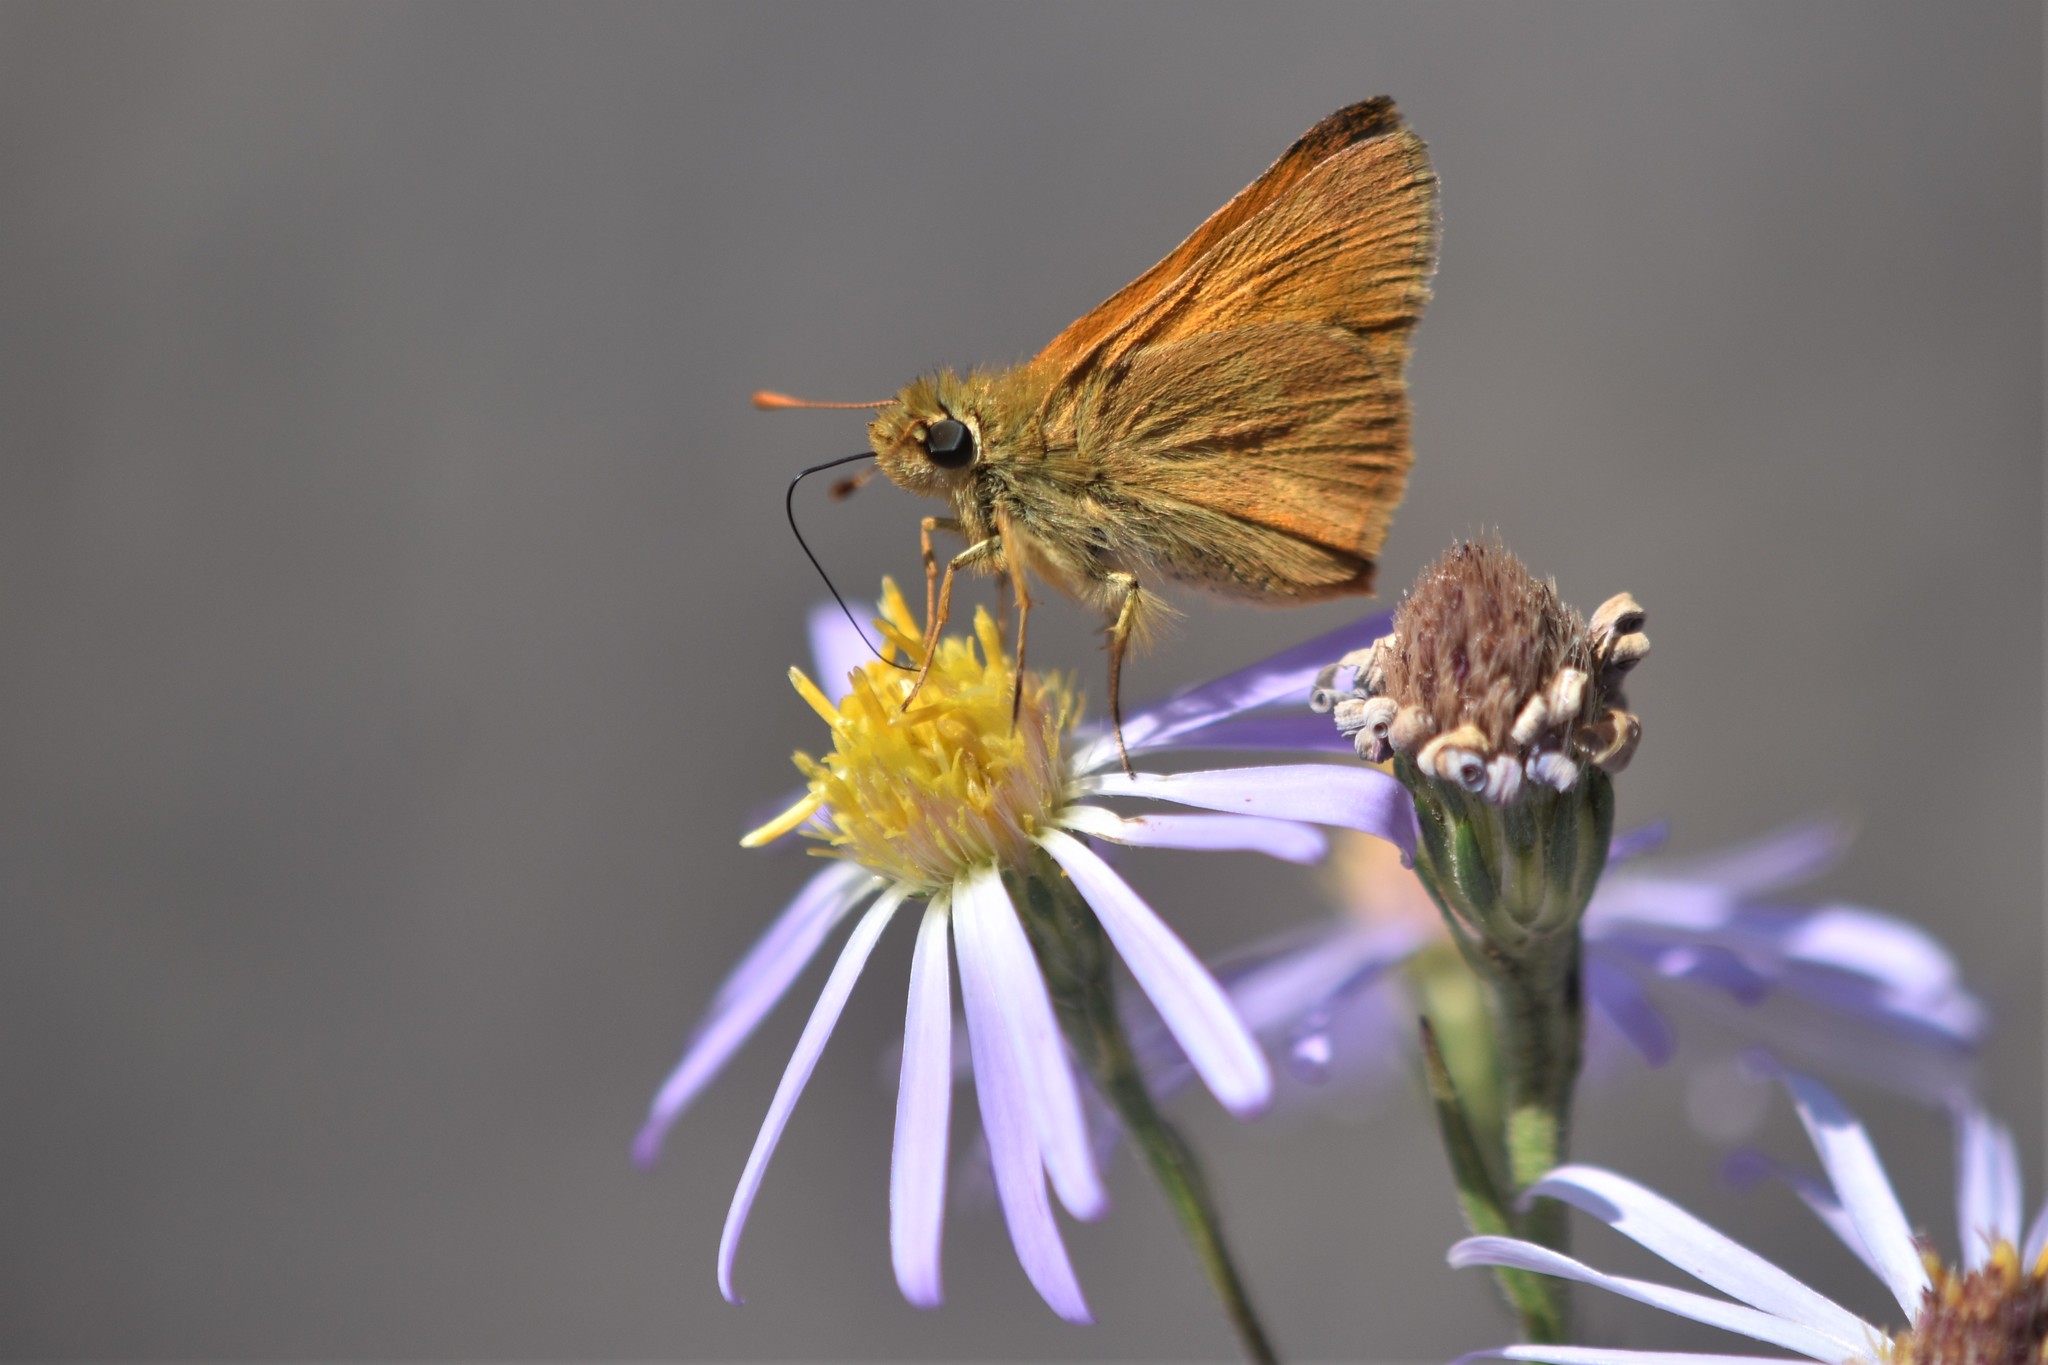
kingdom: Animalia
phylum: Arthropoda
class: Insecta
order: Lepidoptera
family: Hesperiidae
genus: Ochlodes
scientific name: Ochlodes sylvanoides
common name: Woodland skipper
